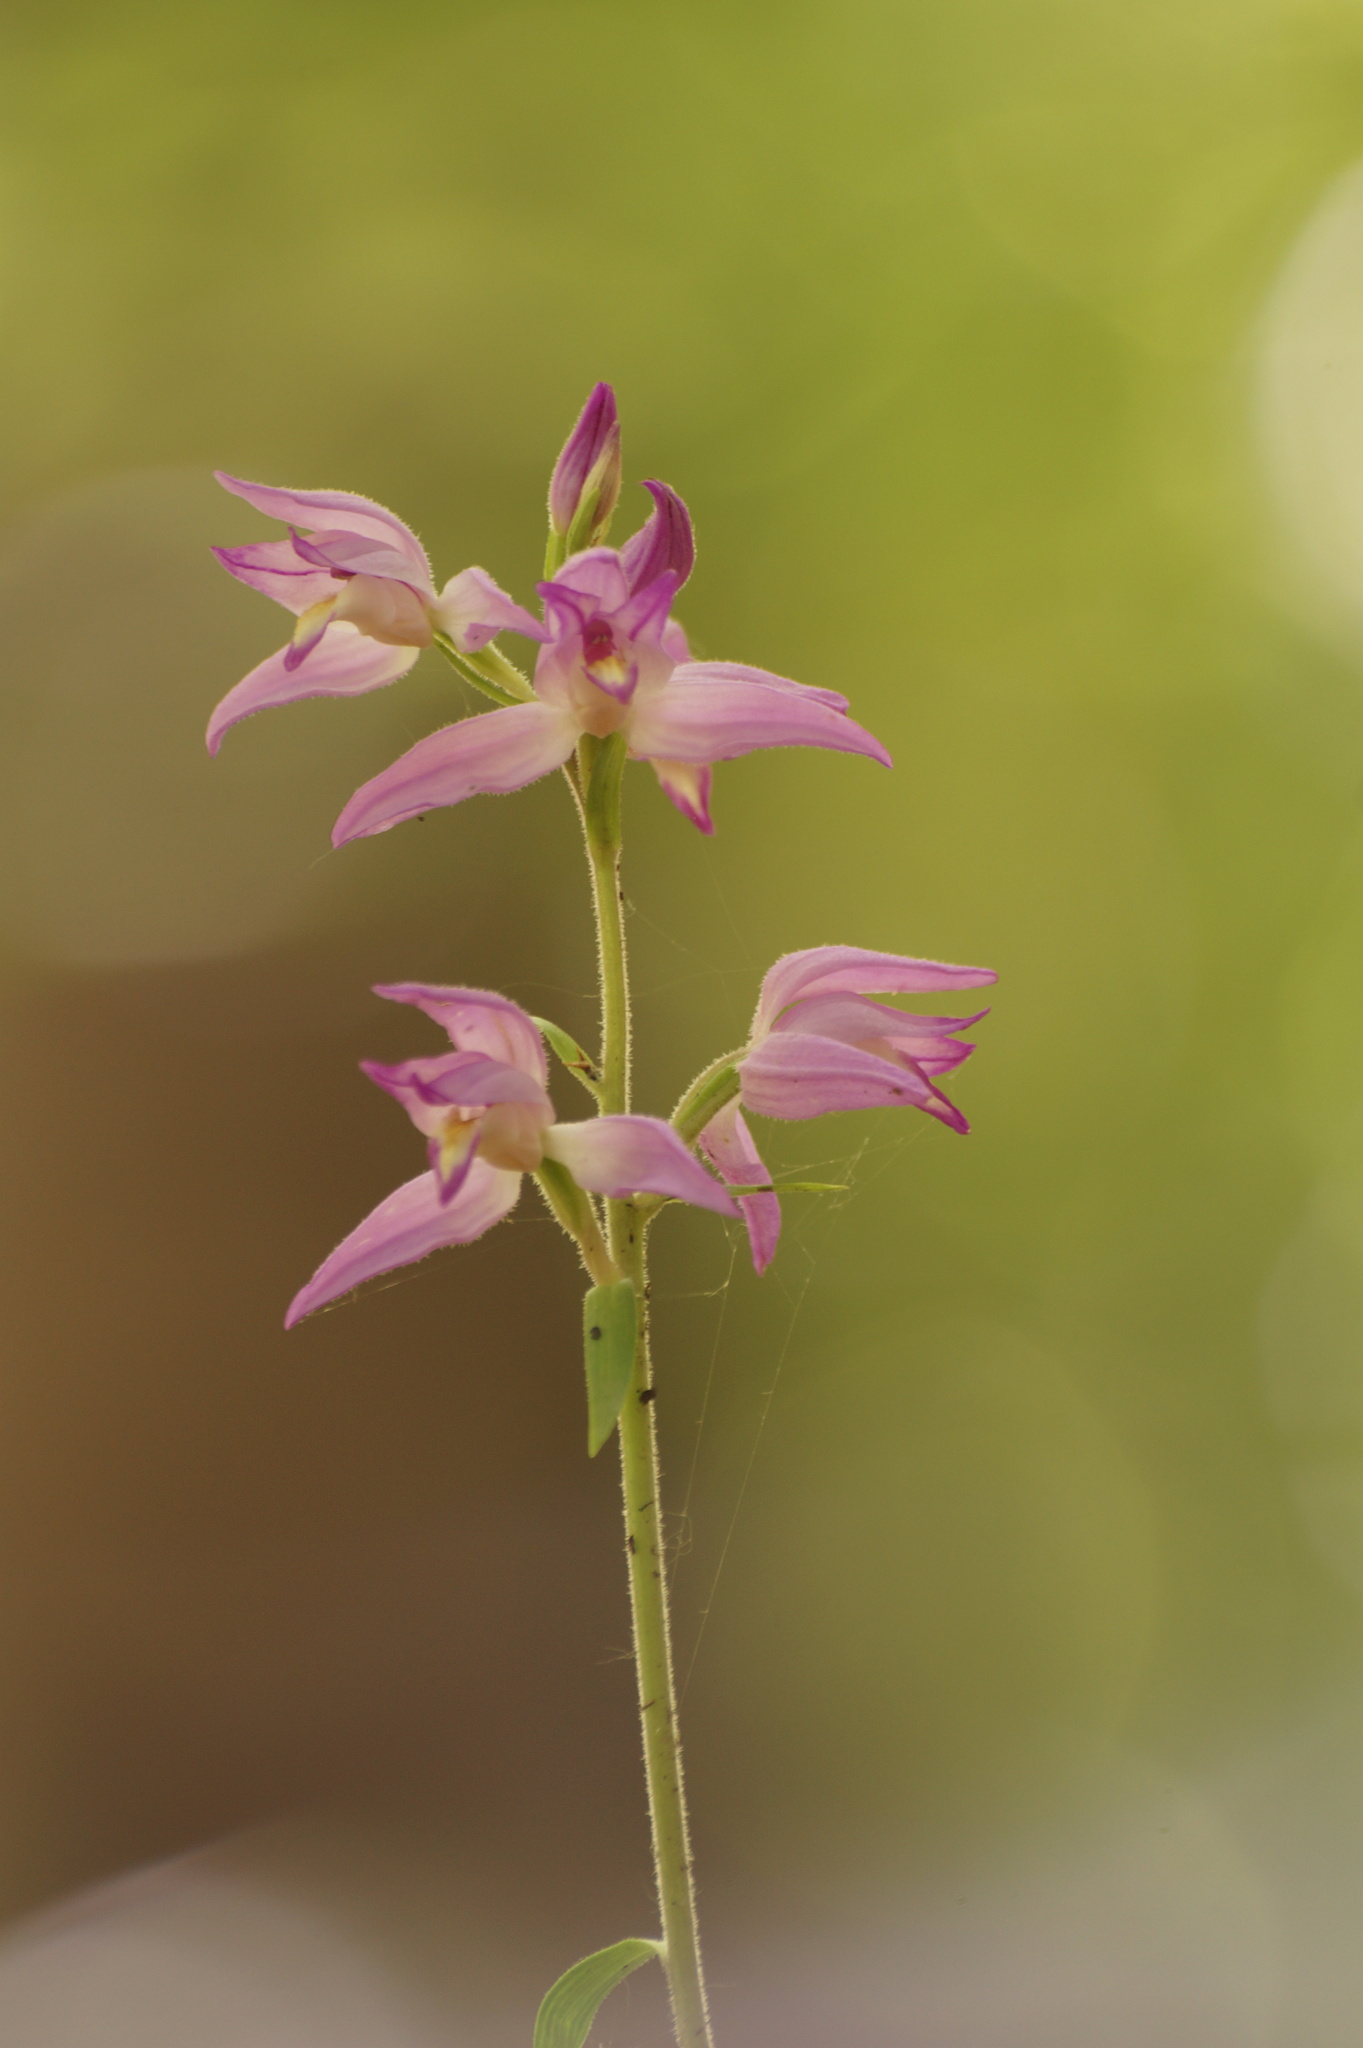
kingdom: Plantae
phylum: Tracheophyta
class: Liliopsida
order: Asparagales
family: Orchidaceae
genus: Cephalanthera
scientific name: Cephalanthera rubra
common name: Red helleborine
